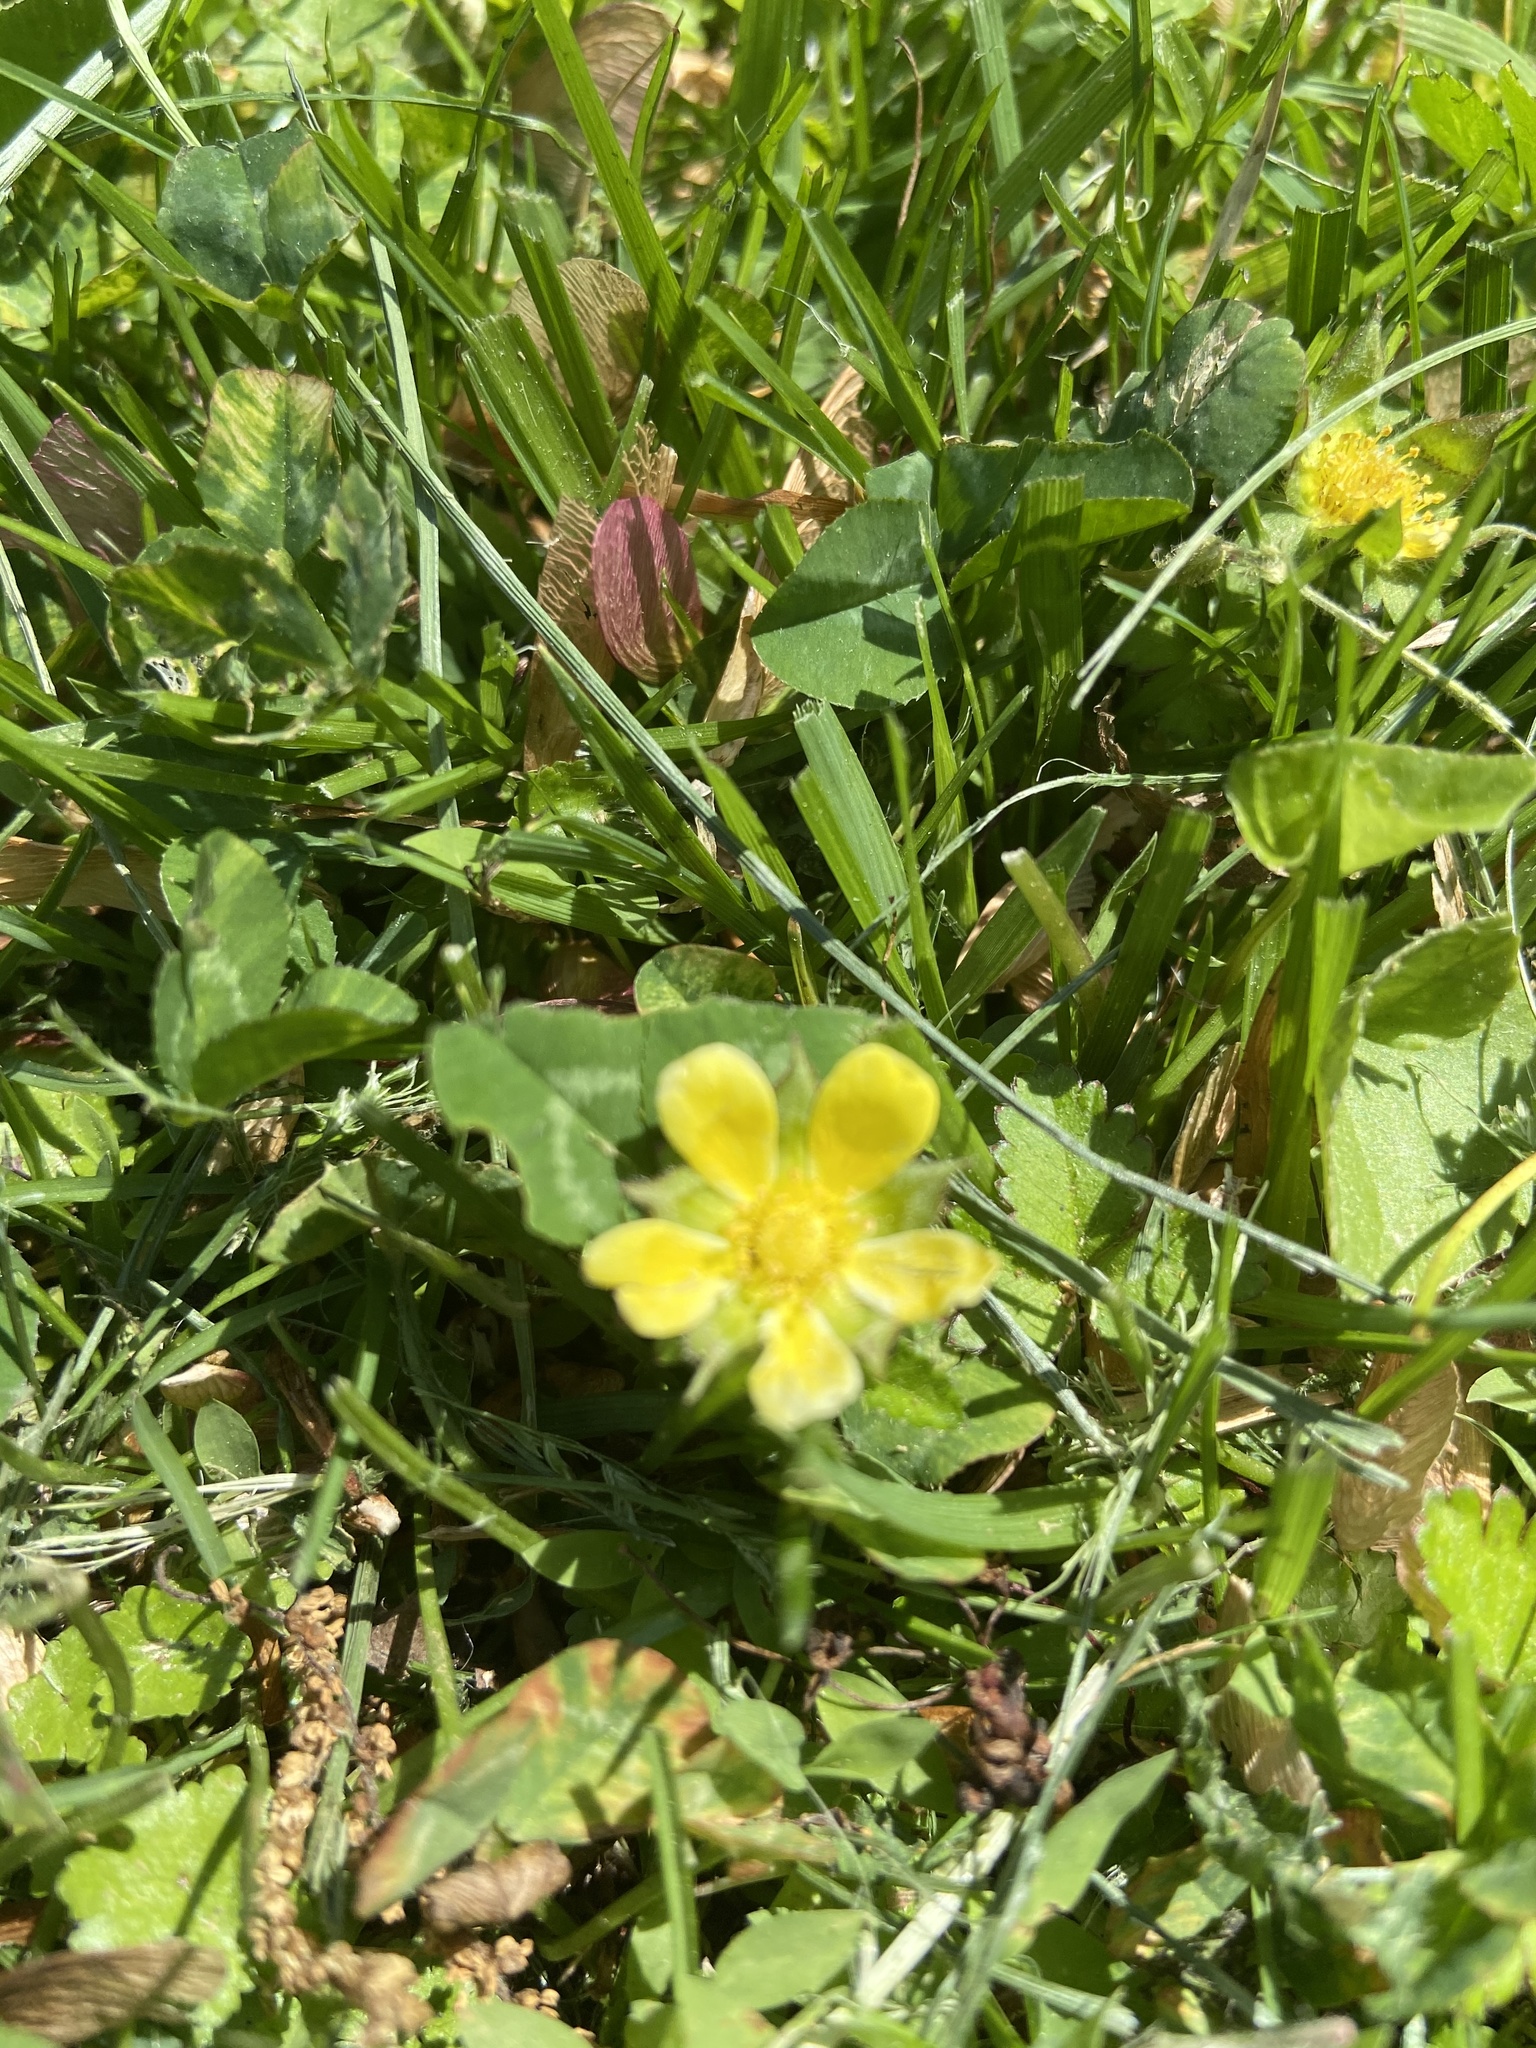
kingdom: Plantae
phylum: Tracheophyta
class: Magnoliopsida
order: Rosales
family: Rosaceae
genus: Potentilla
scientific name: Potentilla indica
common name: Yellow-flowered strawberry
